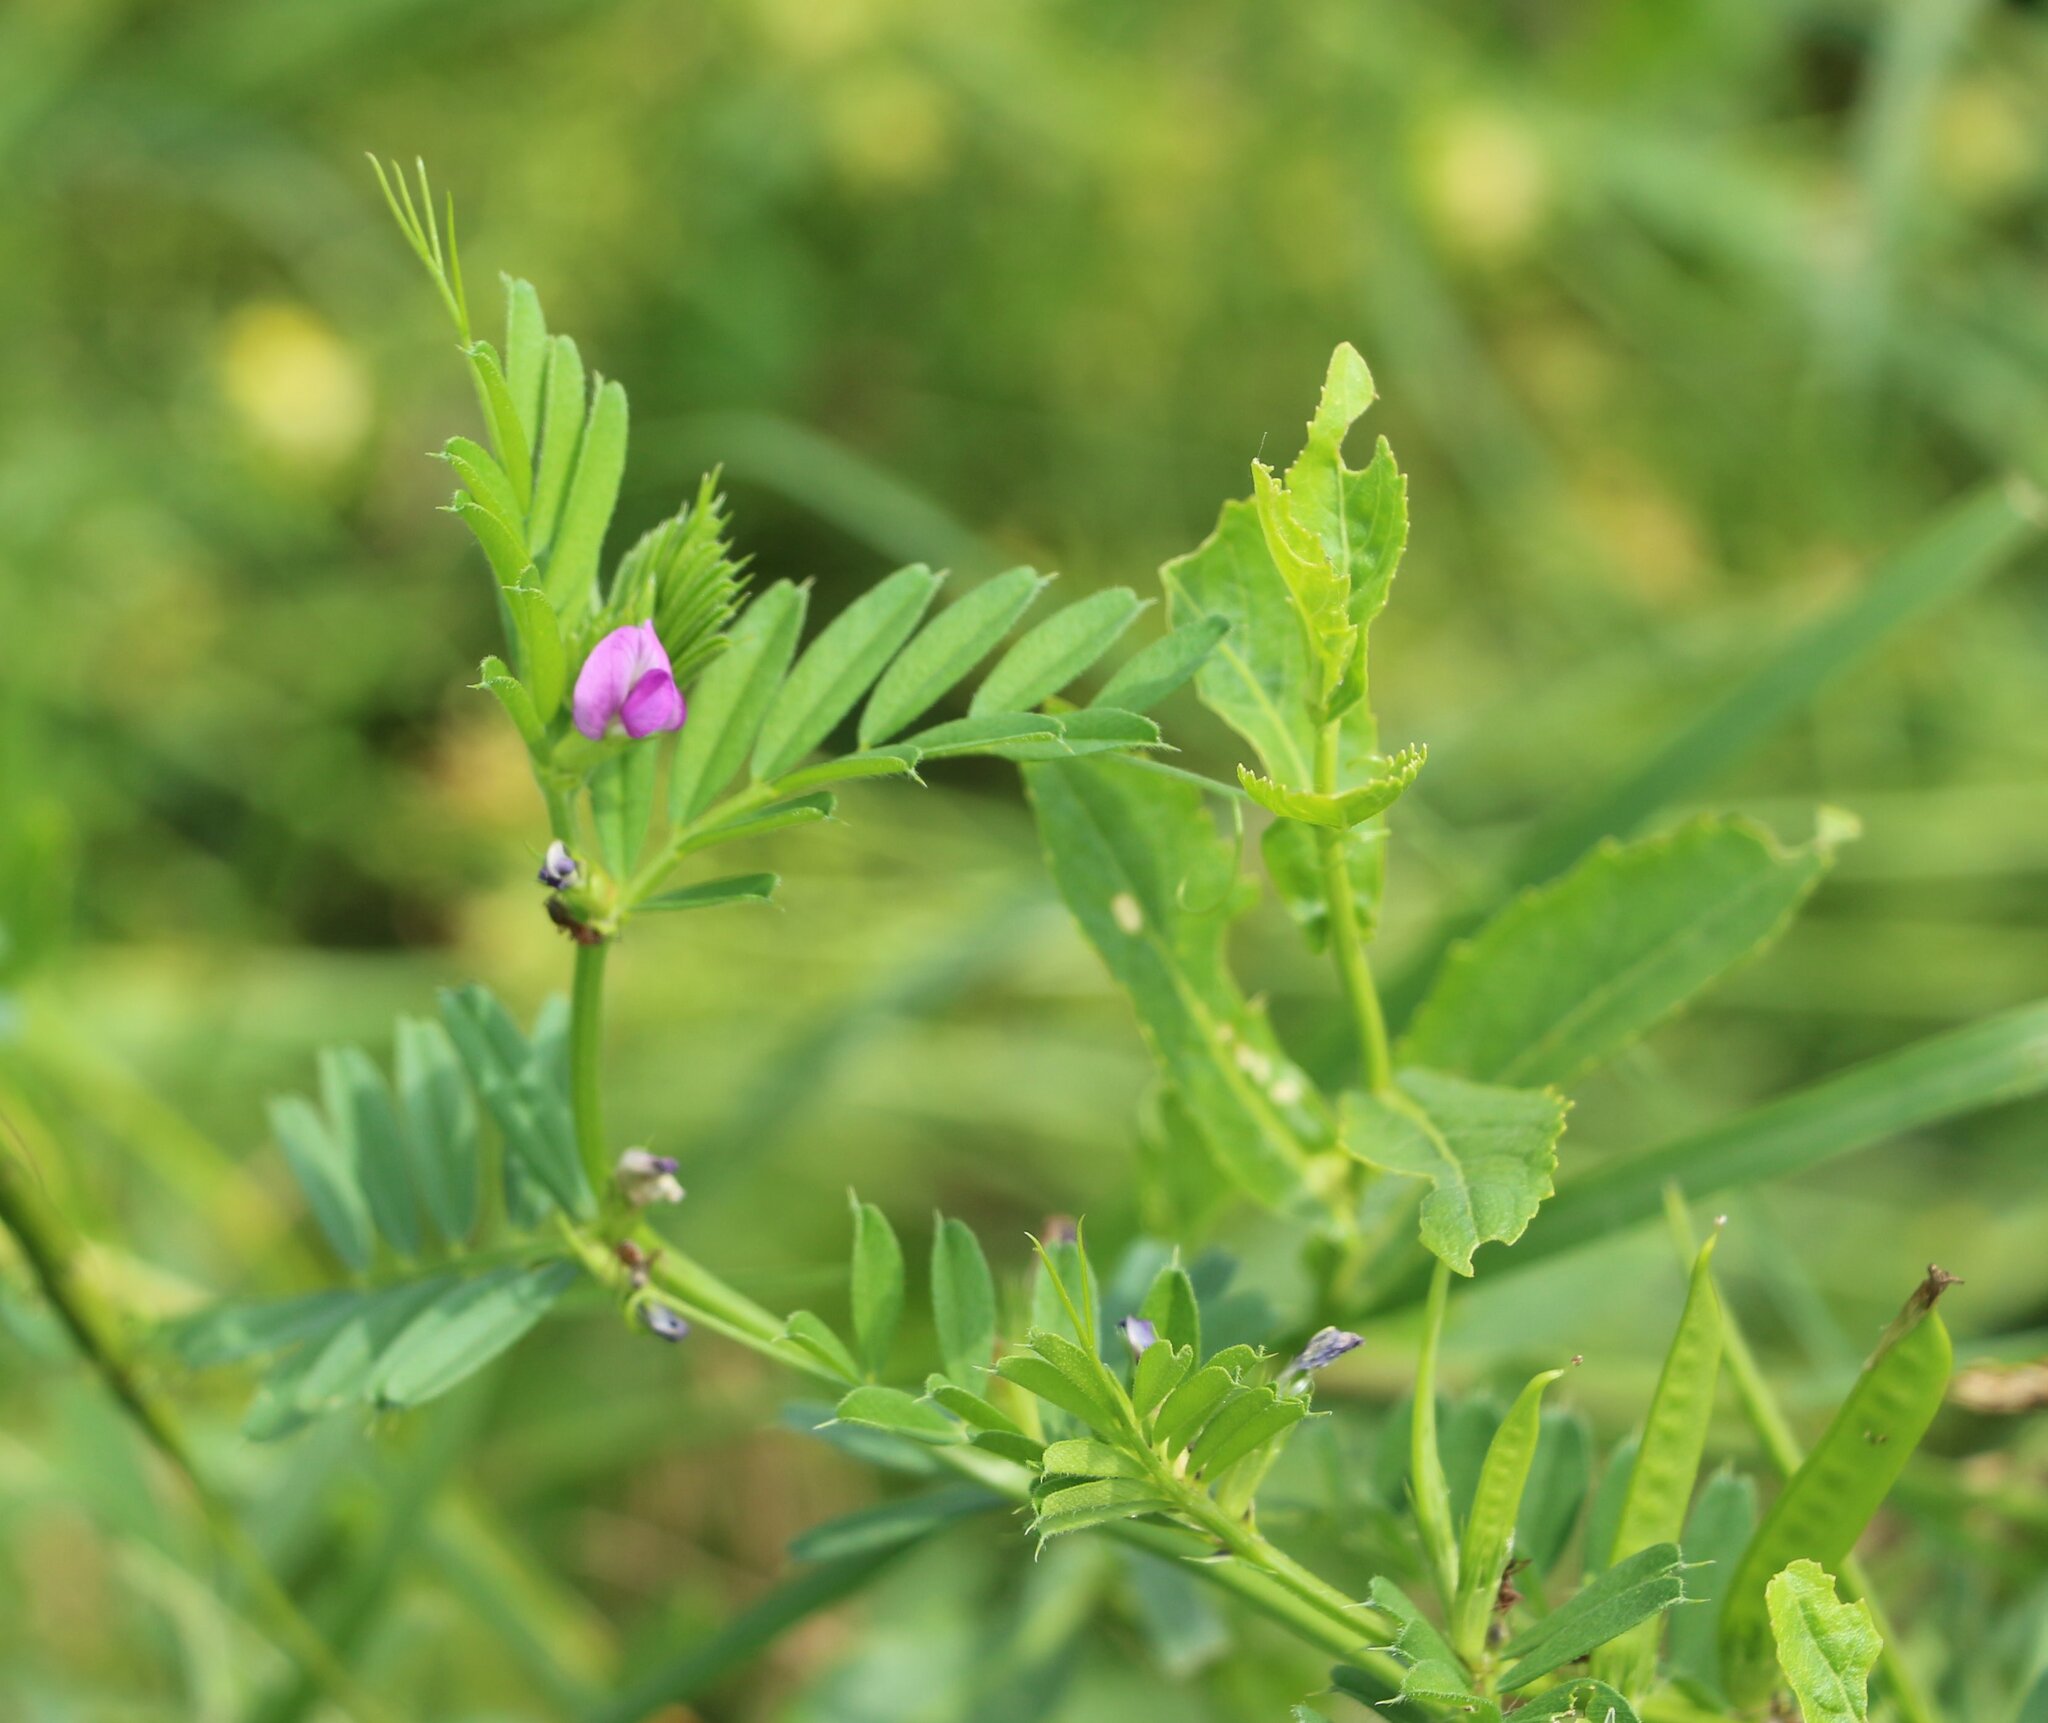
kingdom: Plantae
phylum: Tracheophyta
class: Magnoliopsida
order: Fabales
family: Fabaceae
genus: Vicia
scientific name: Vicia sativa
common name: Garden vetch
